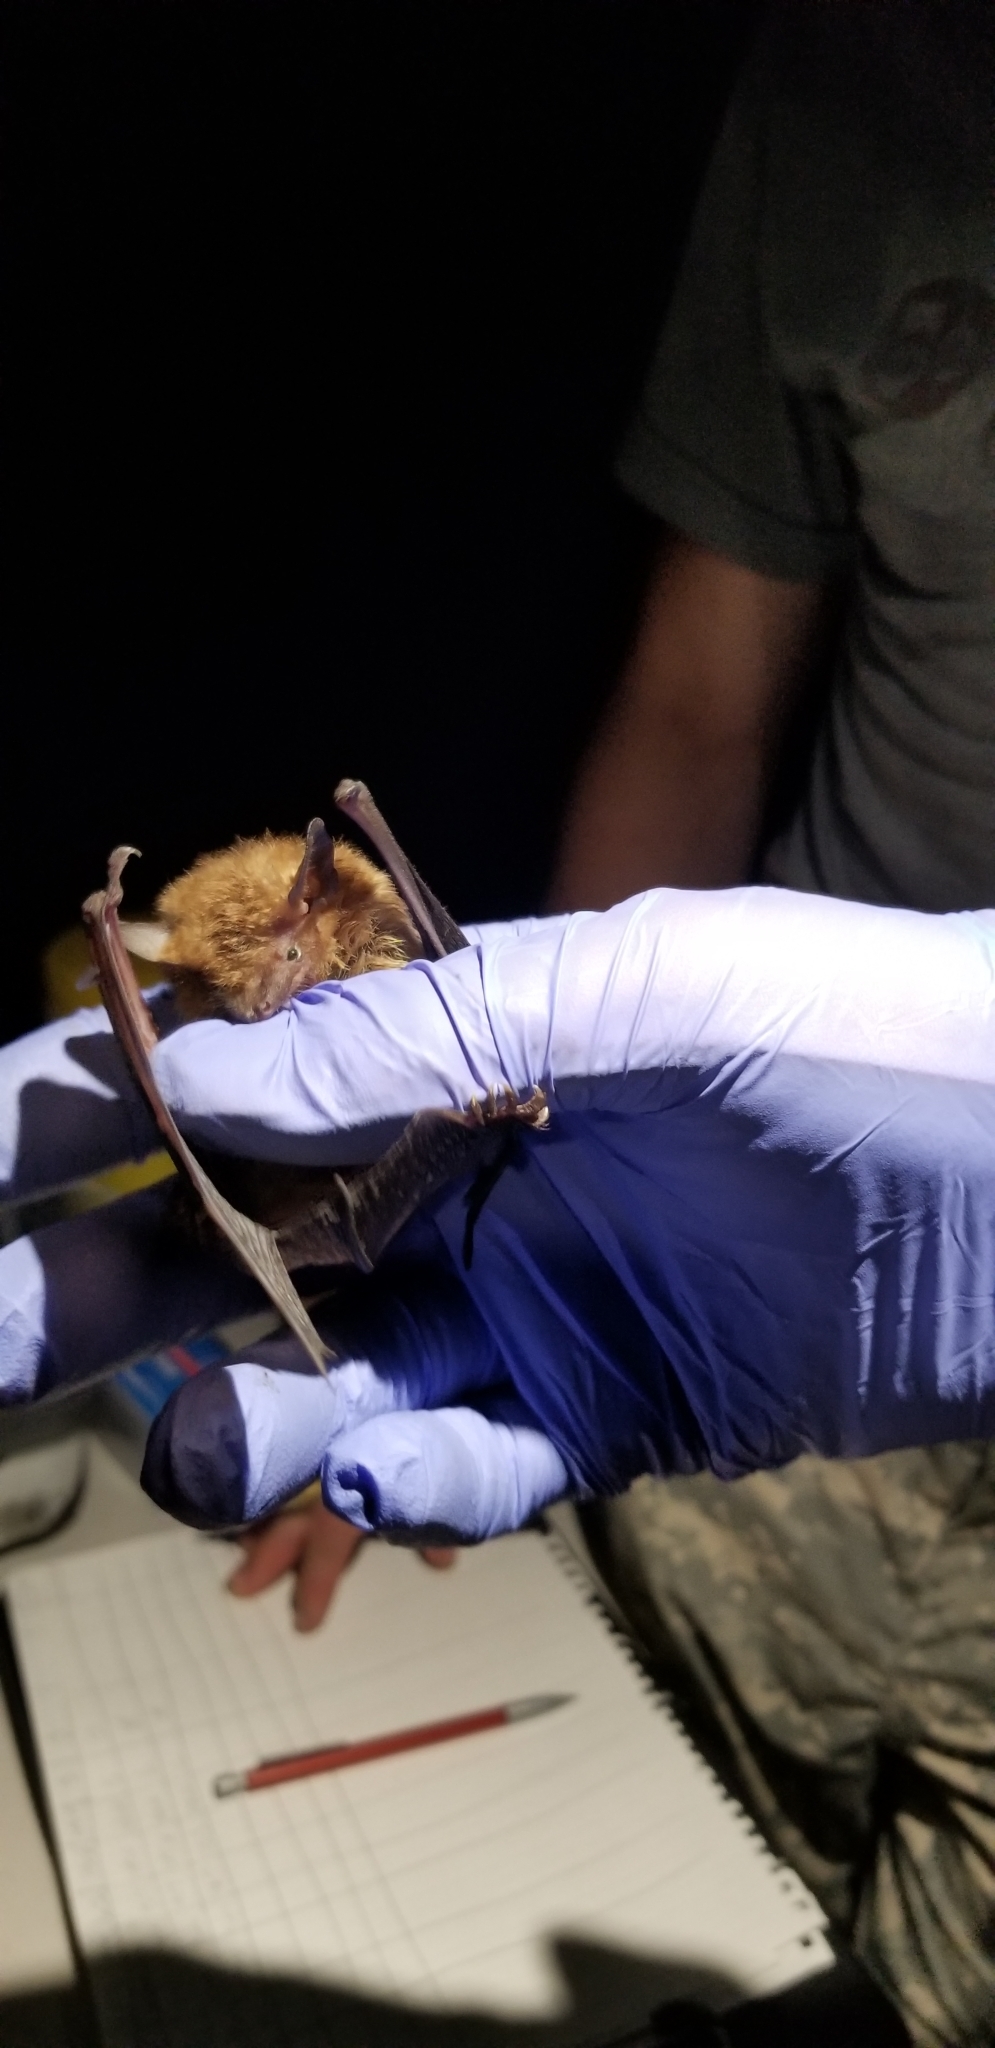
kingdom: Animalia
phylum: Chordata
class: Mammalia
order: Chiroptera
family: Vespertilionidae
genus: Eptesicus
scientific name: Eptesicus fuscus
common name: Big brown bat
